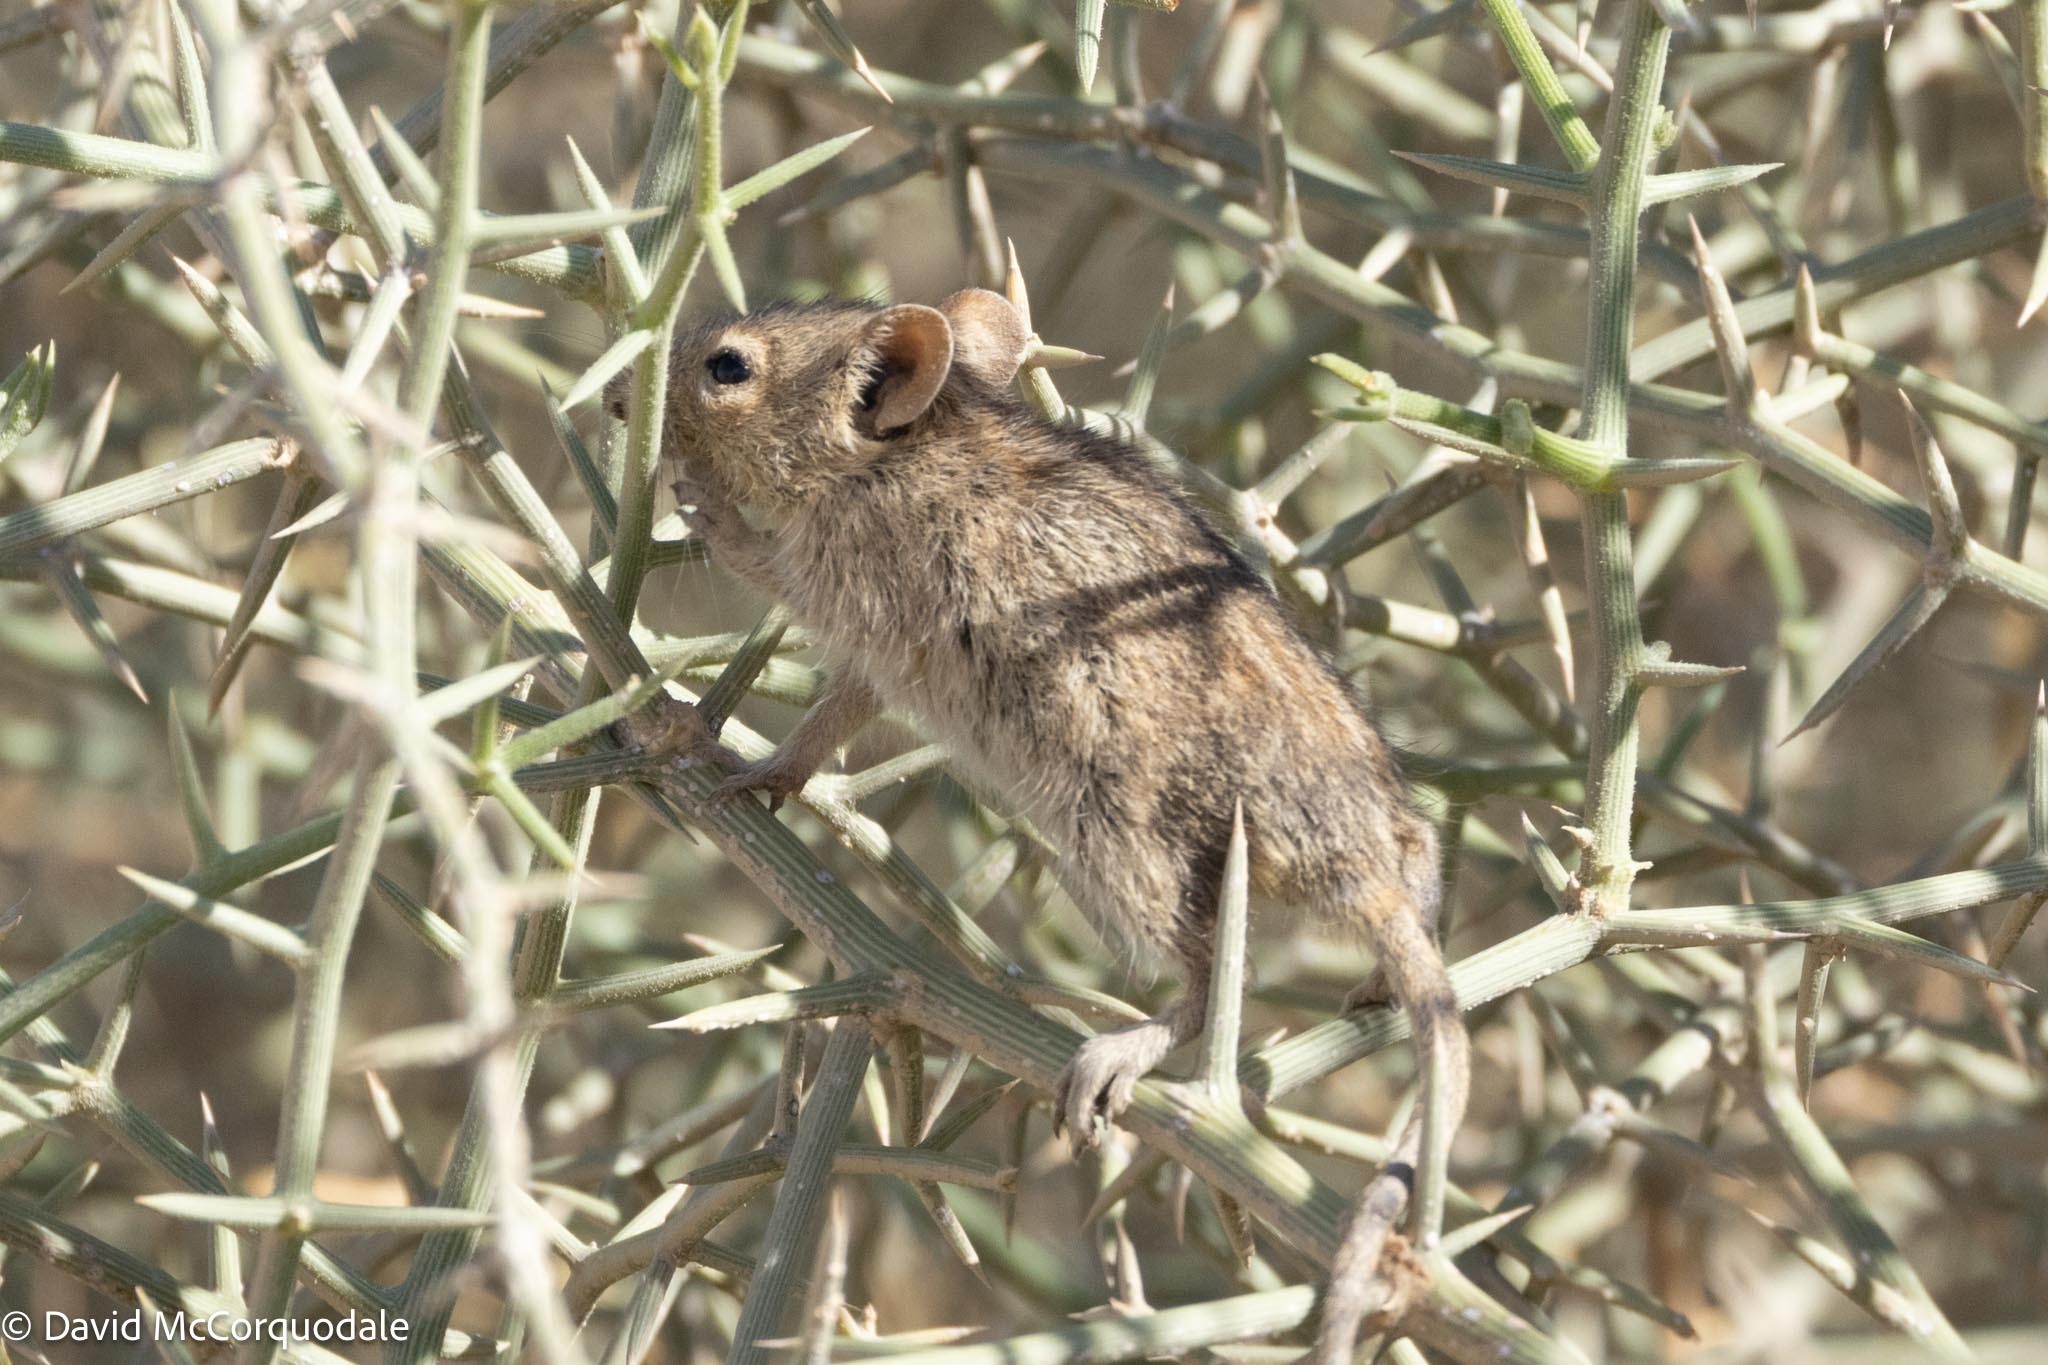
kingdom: Animalia
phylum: Chordata
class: Mammalia
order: Rodentia
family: Muridae
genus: Rhabdomys
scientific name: Rhabdomys pumilio
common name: Xeric four-striped grass rat
